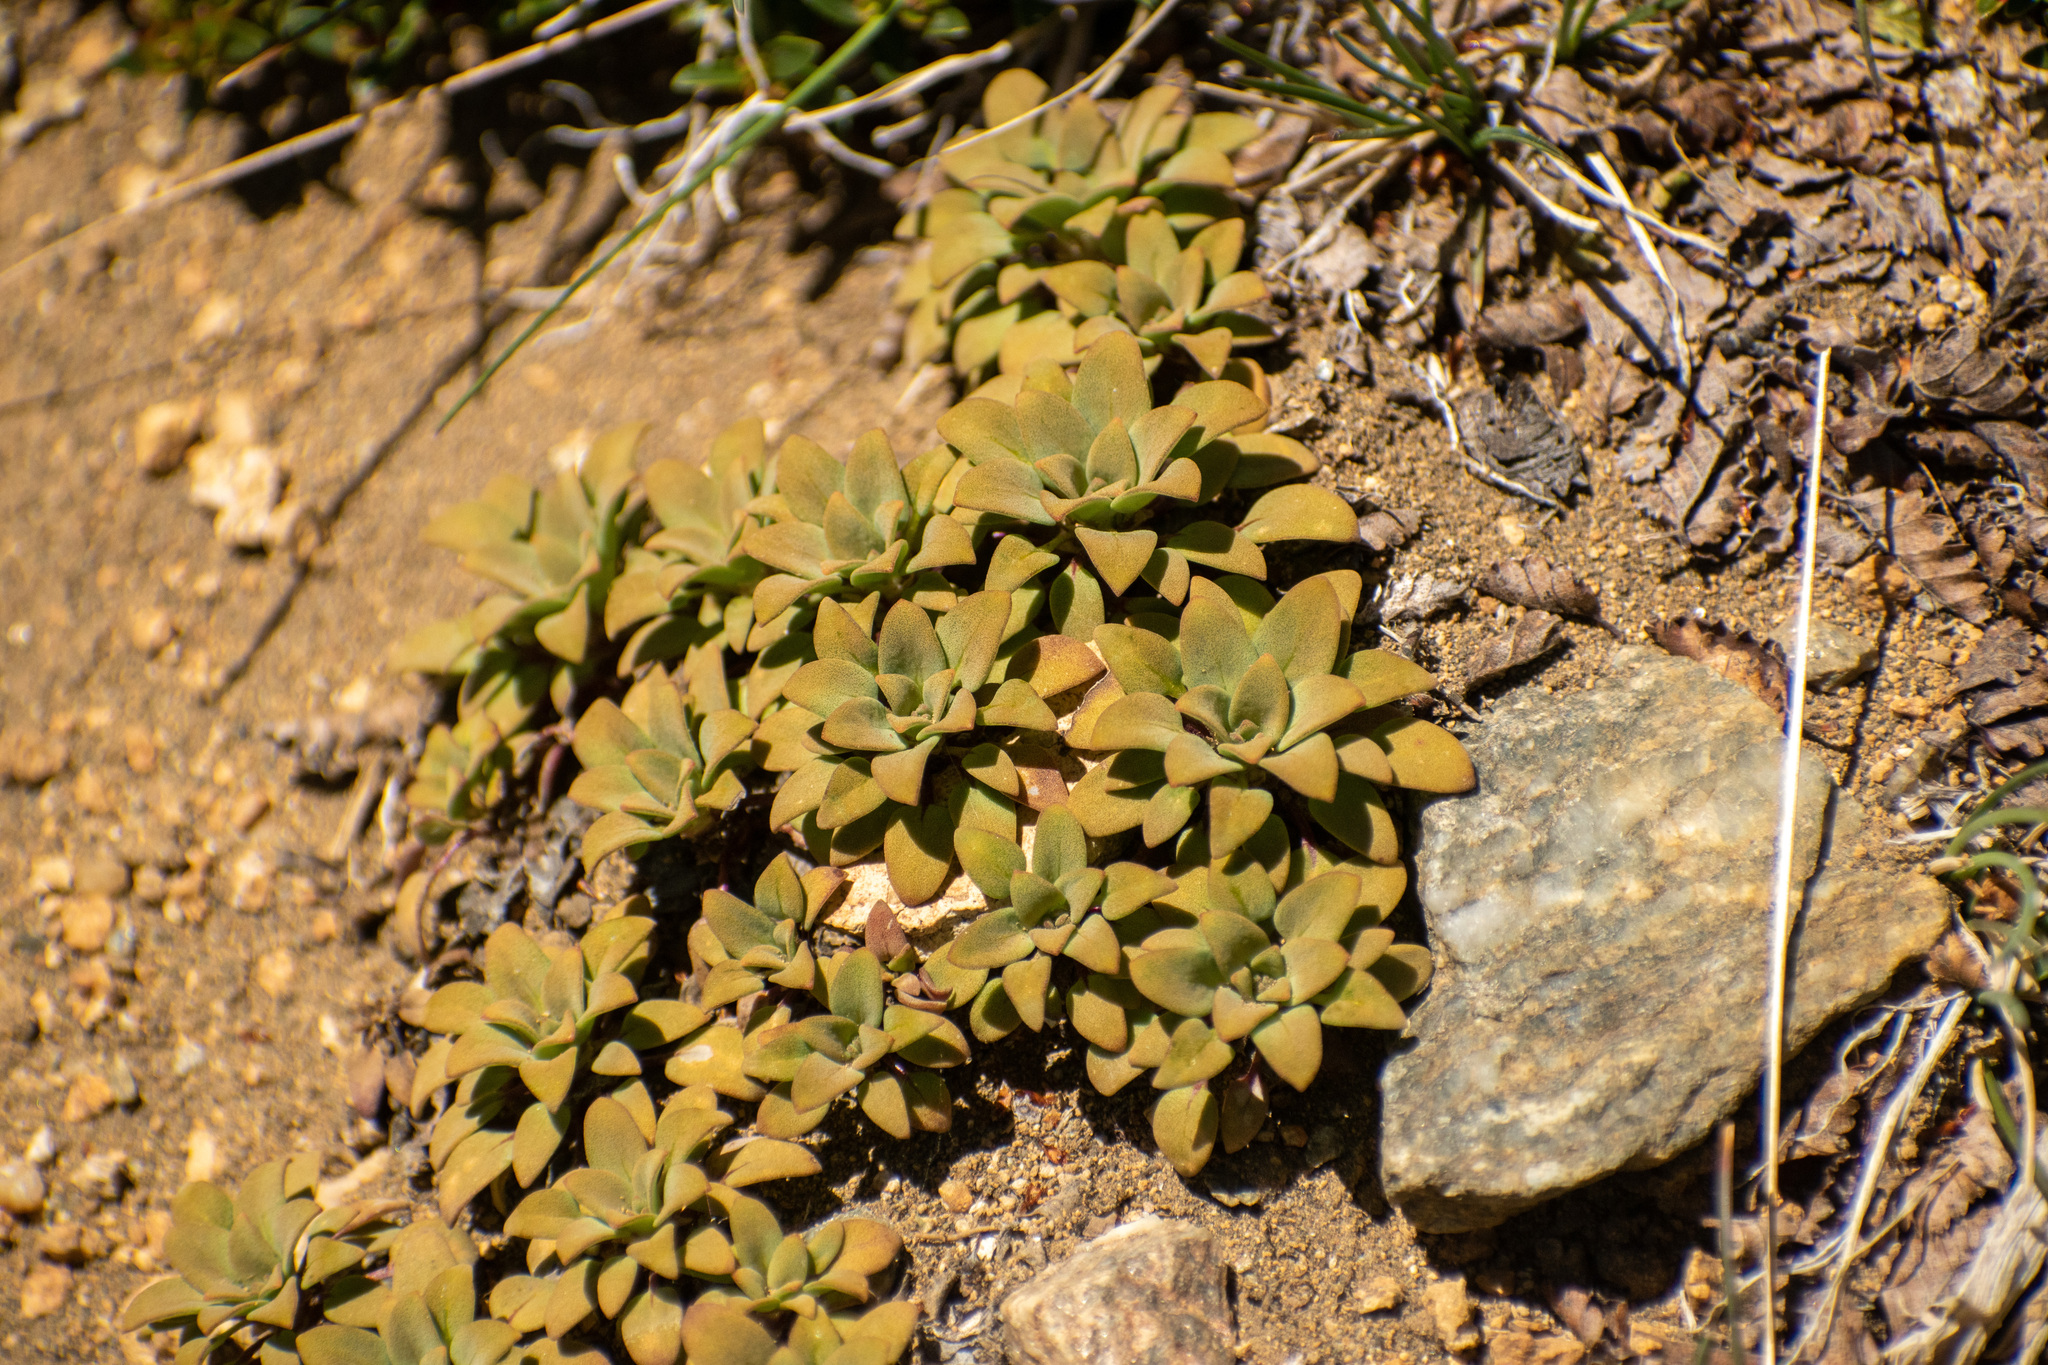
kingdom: Plantae
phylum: Tracheophyta
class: Magnoliopsida
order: Gentianales
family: Rubiaceae
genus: Oreopolus
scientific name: Oreopolus glacialis
